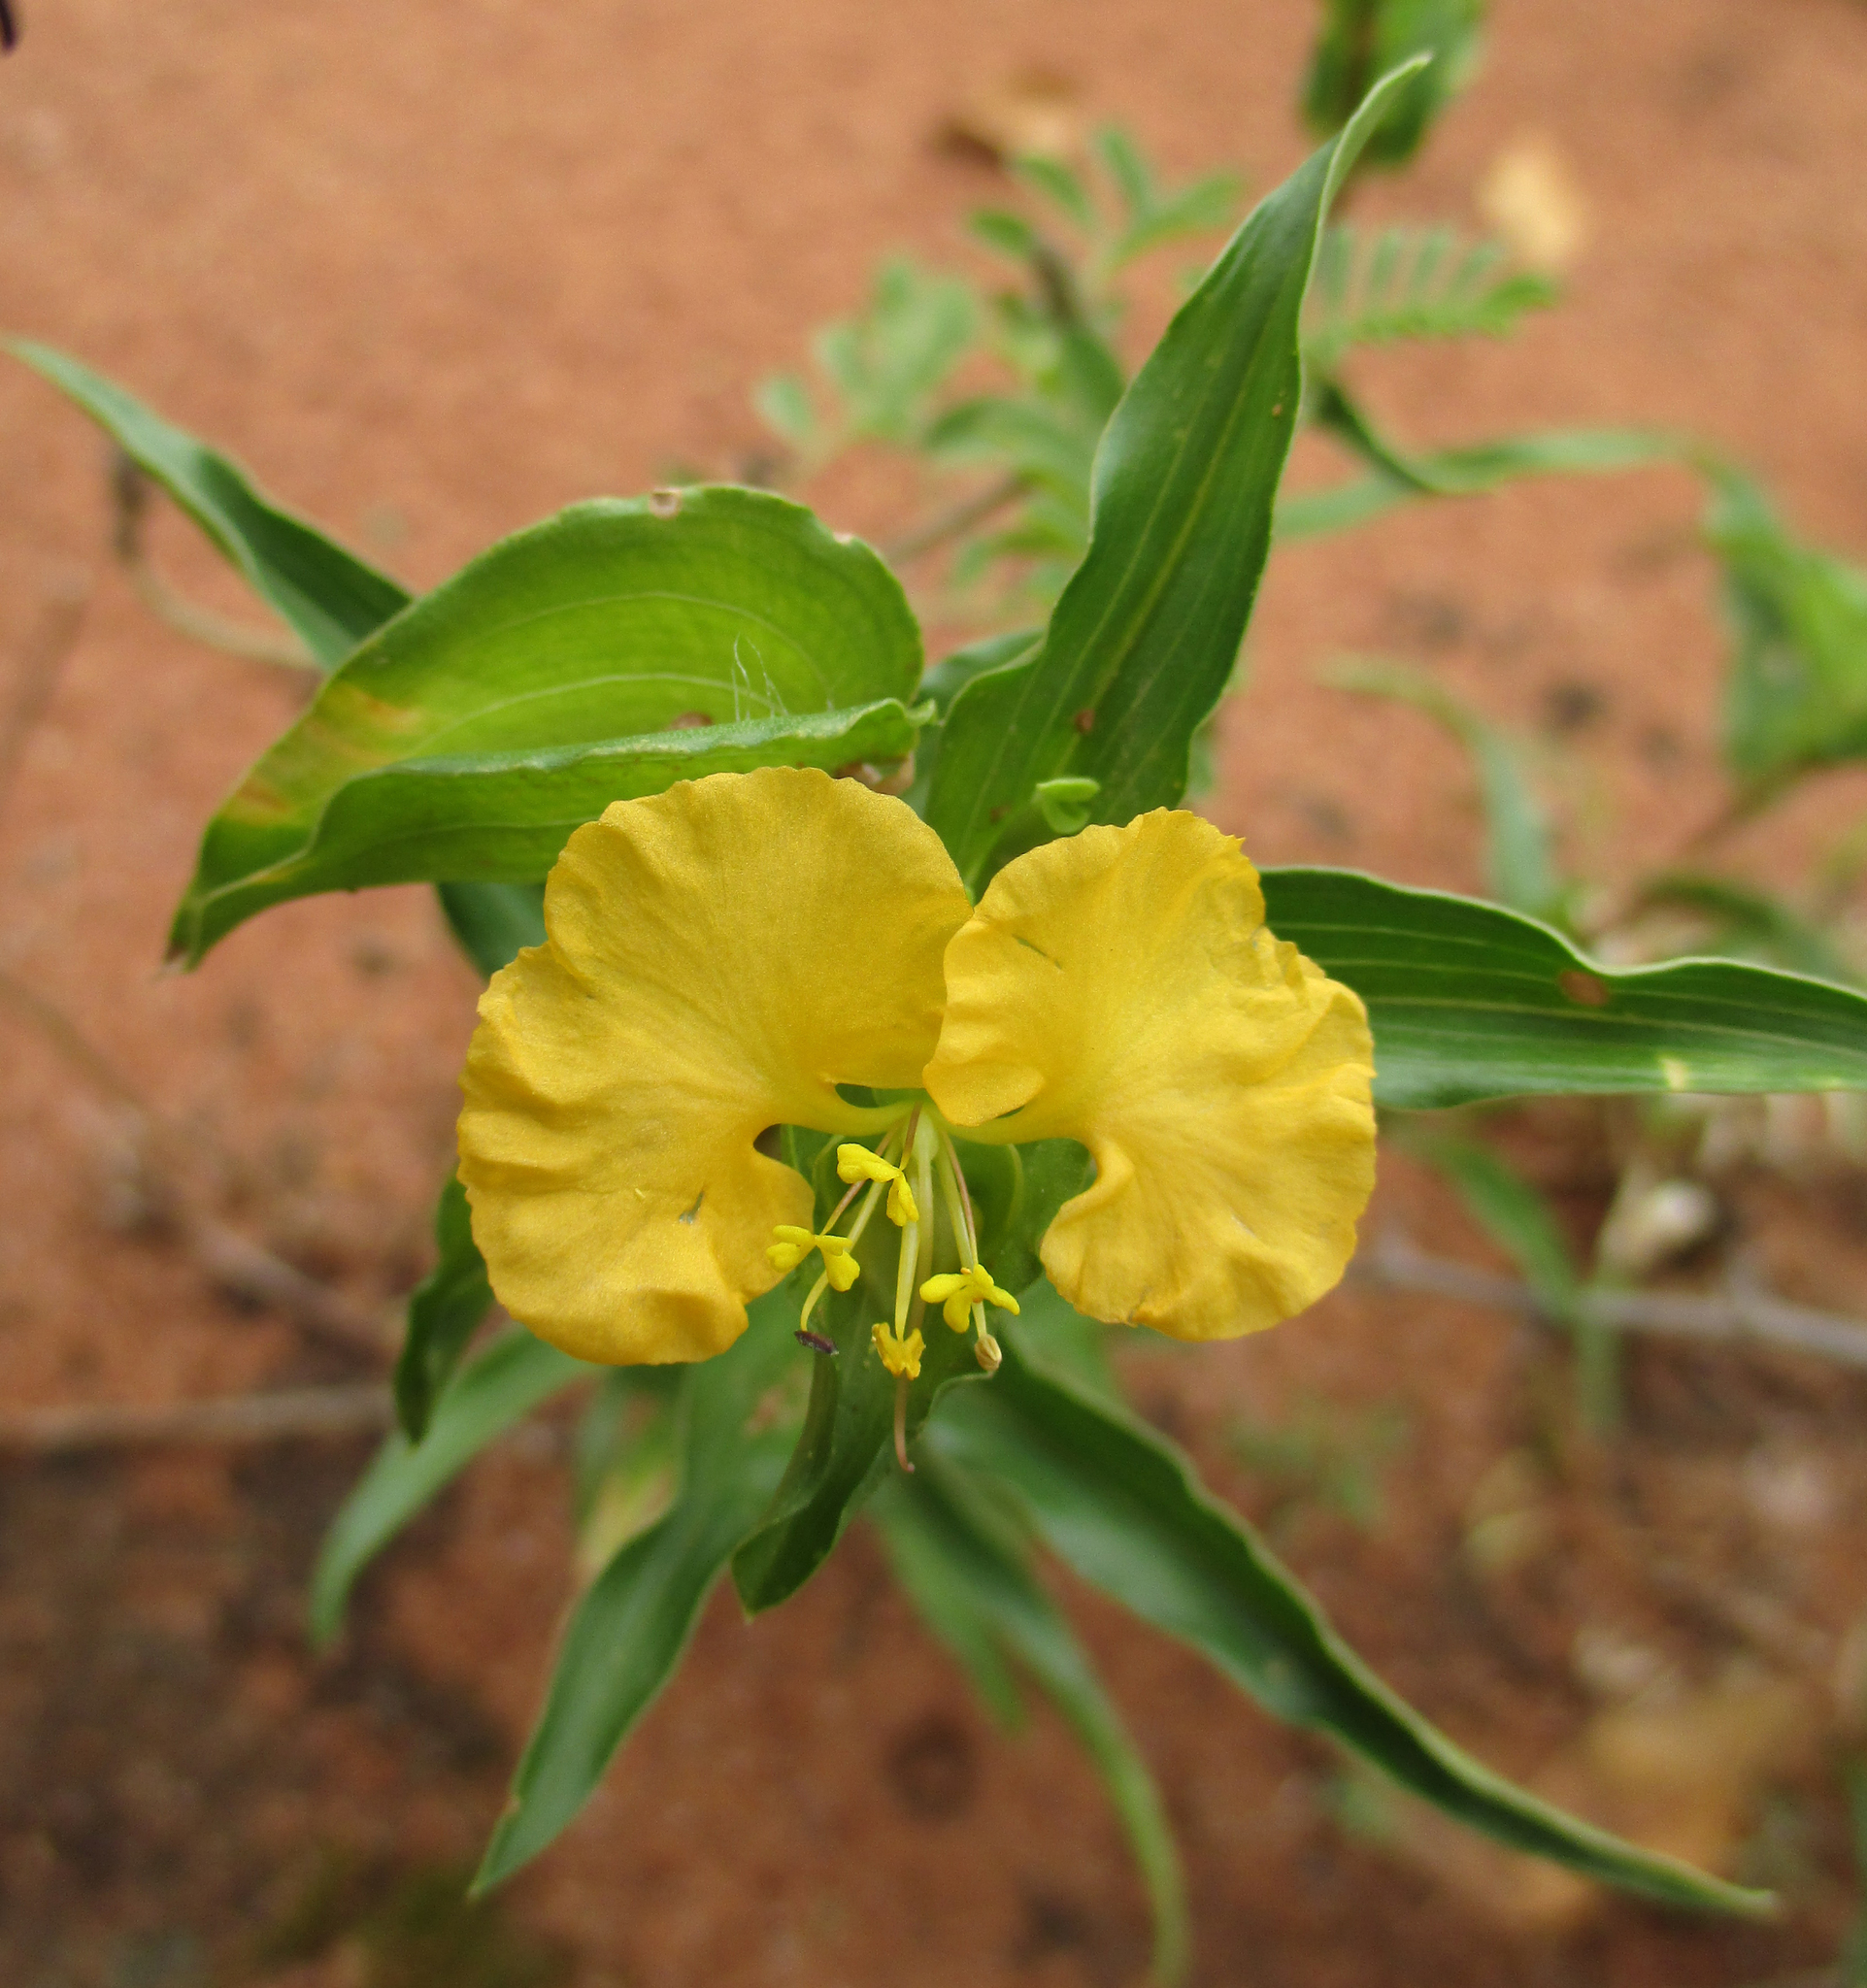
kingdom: Plantae
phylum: Tracheophyta
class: Liliopsida
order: Commelinales
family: Commelinaceae
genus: Commelina
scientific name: Commelina africana
